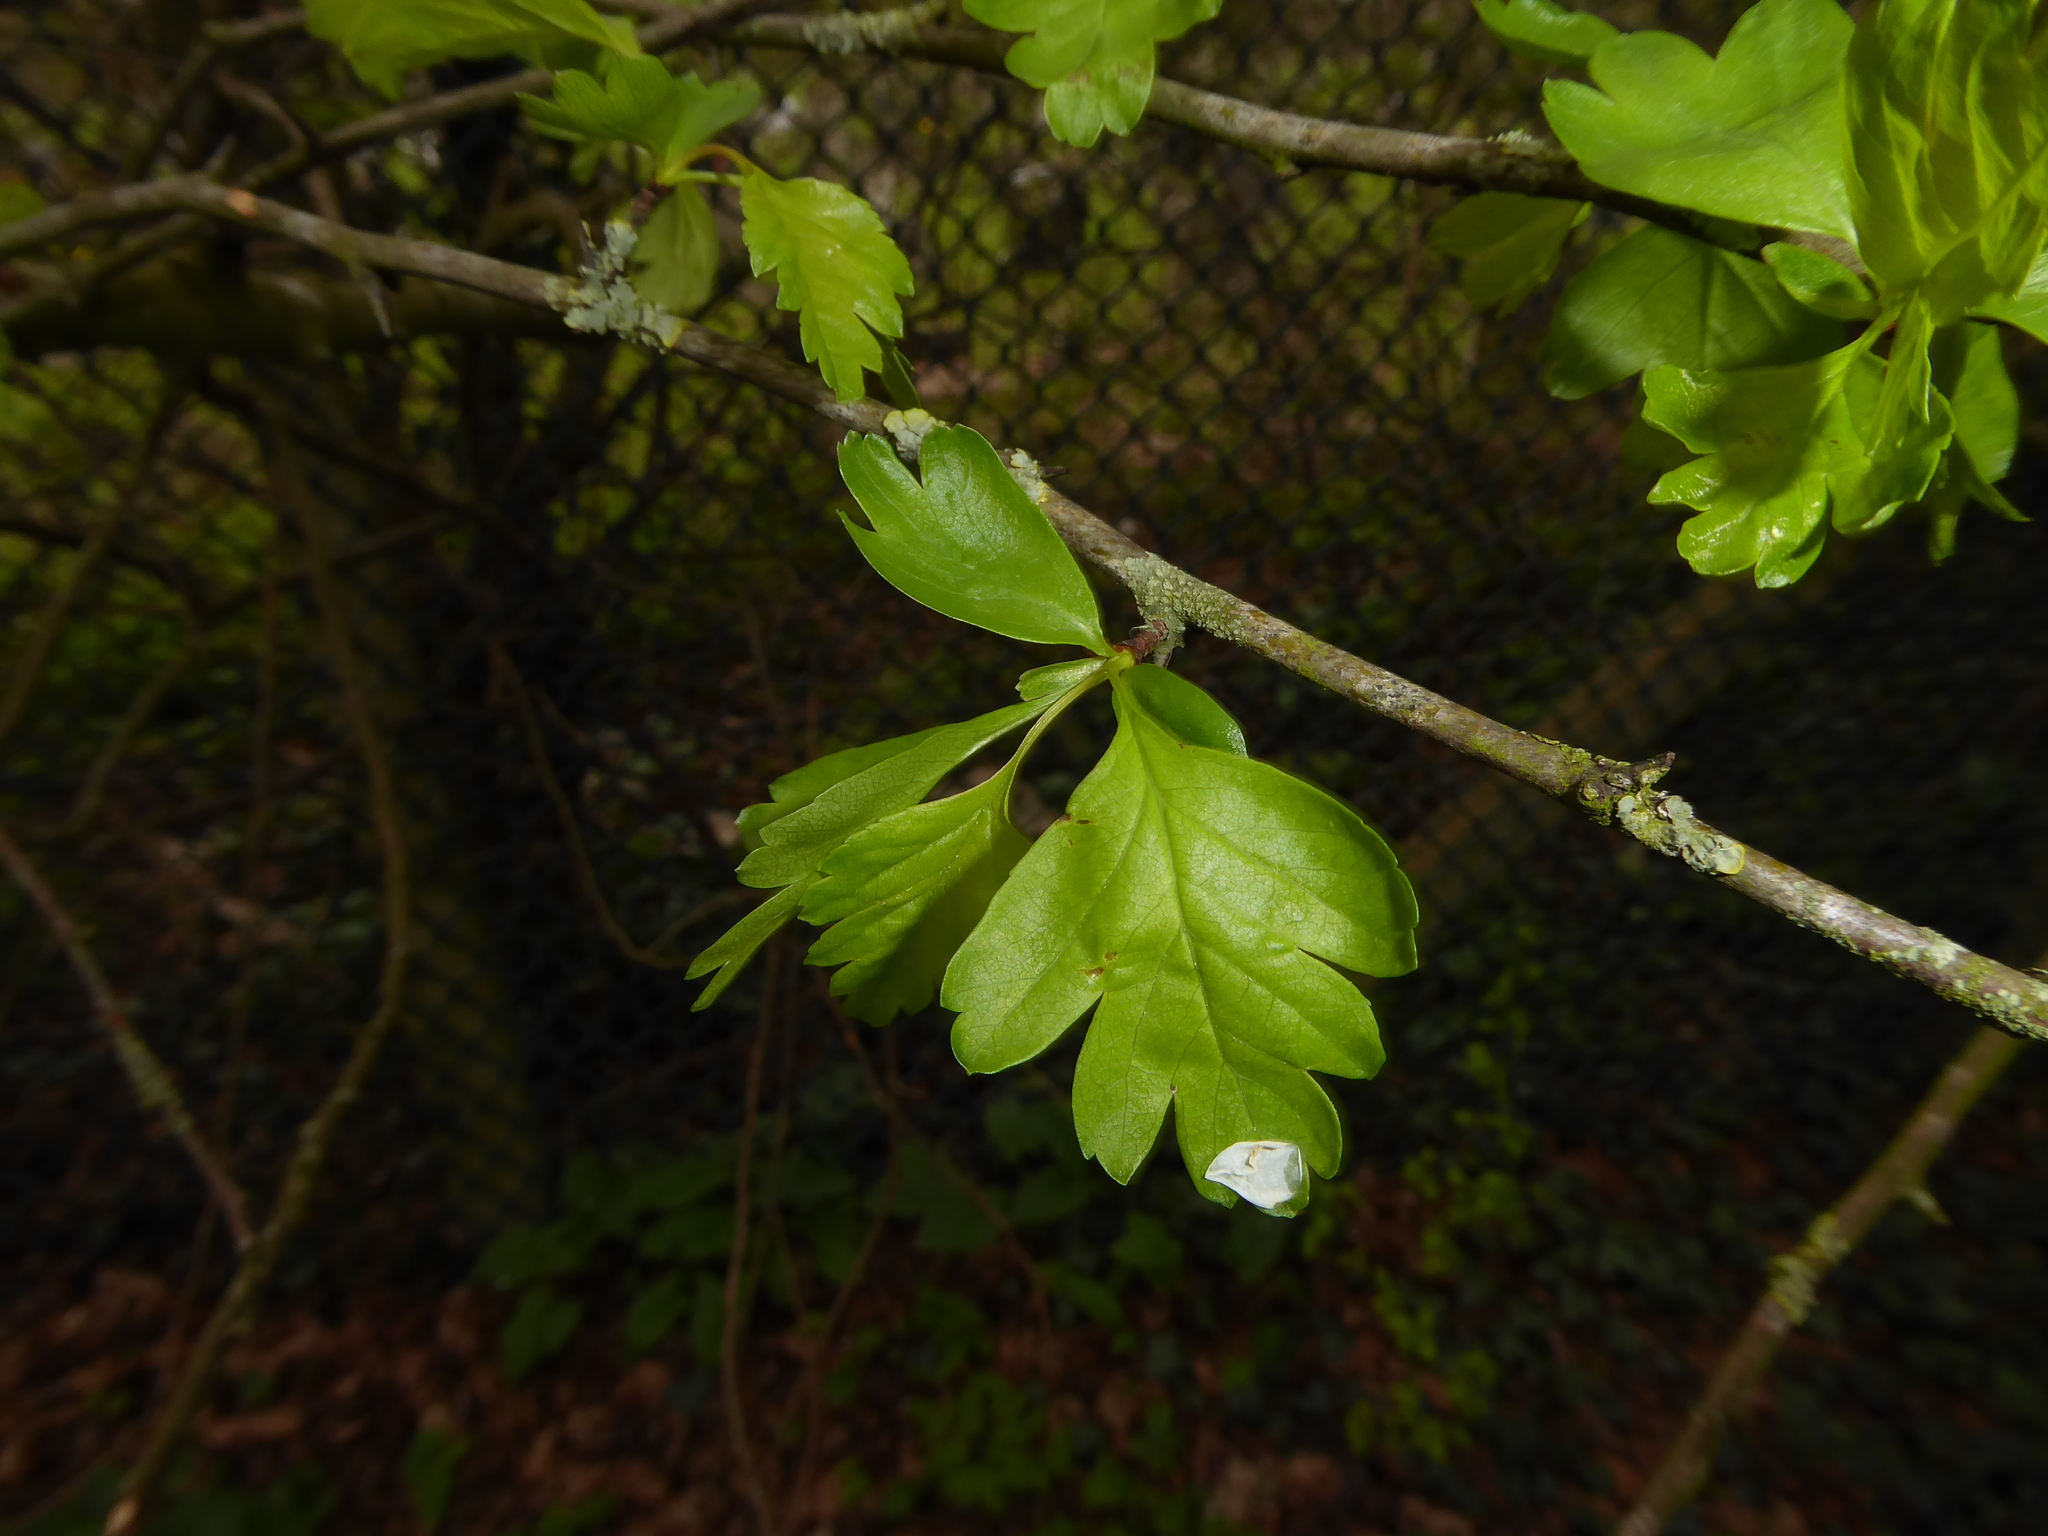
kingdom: Plantae
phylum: Tracheophyta
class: Magnoliopsida
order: Rosales
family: Rosaceae
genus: Crataegus
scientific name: Crataegus monogyna
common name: Hawthorn
